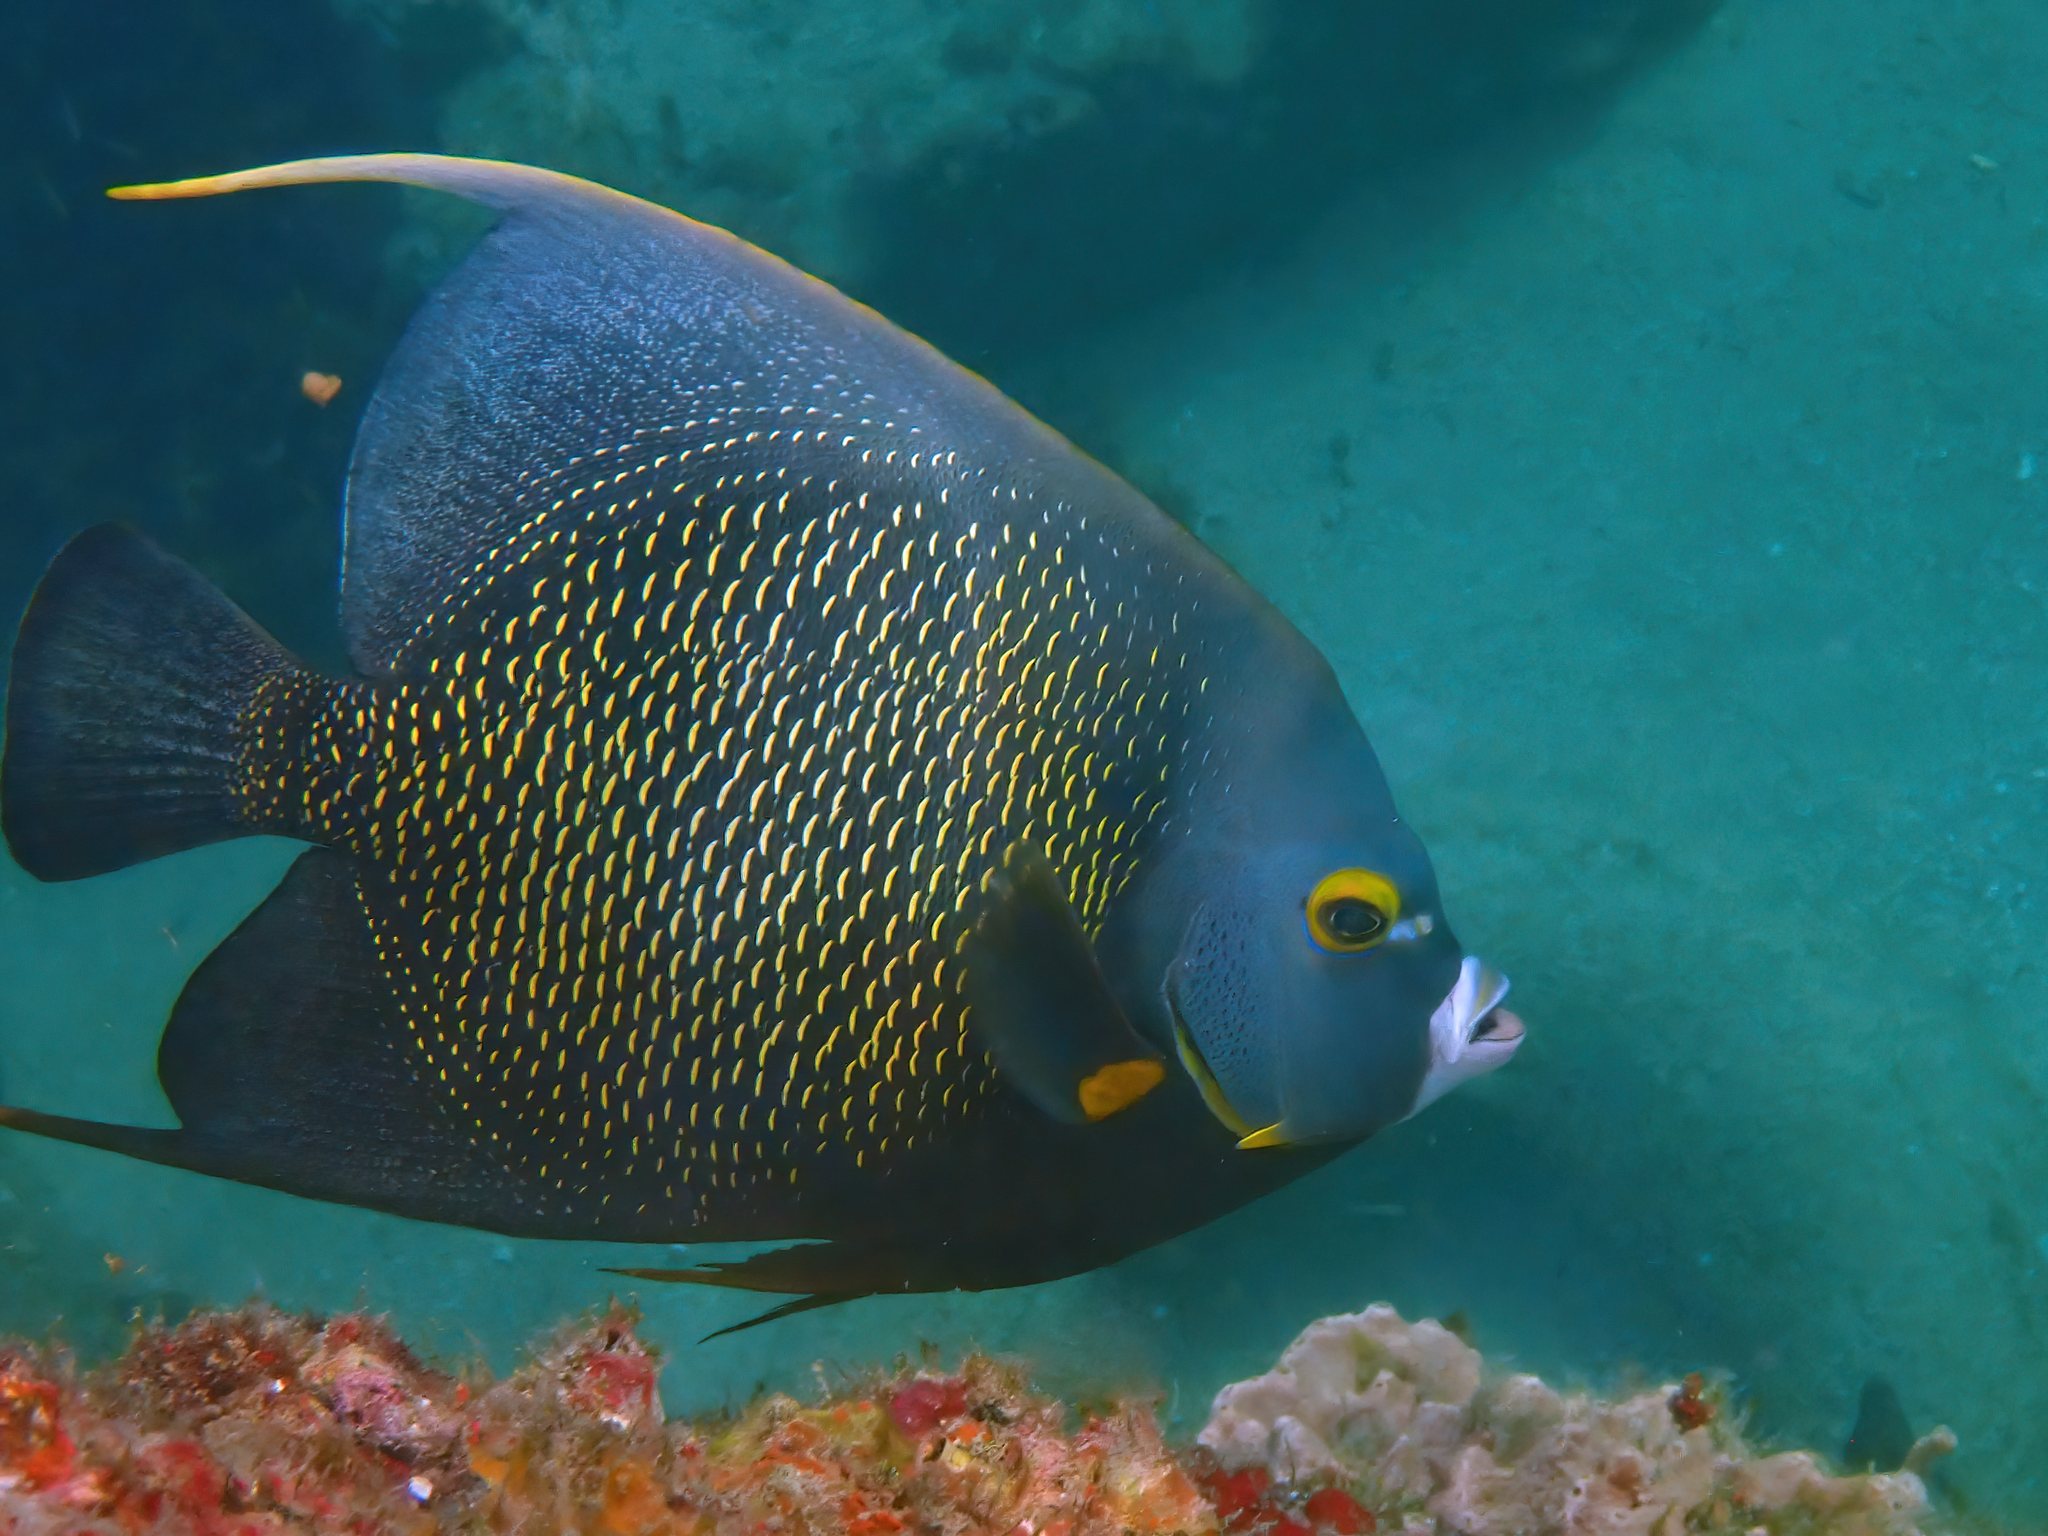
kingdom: Animalia
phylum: Chordata
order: Perciformes
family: Pomacanthidae
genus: Pomacanthus
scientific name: Pomacanthus paru
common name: French angelfish
